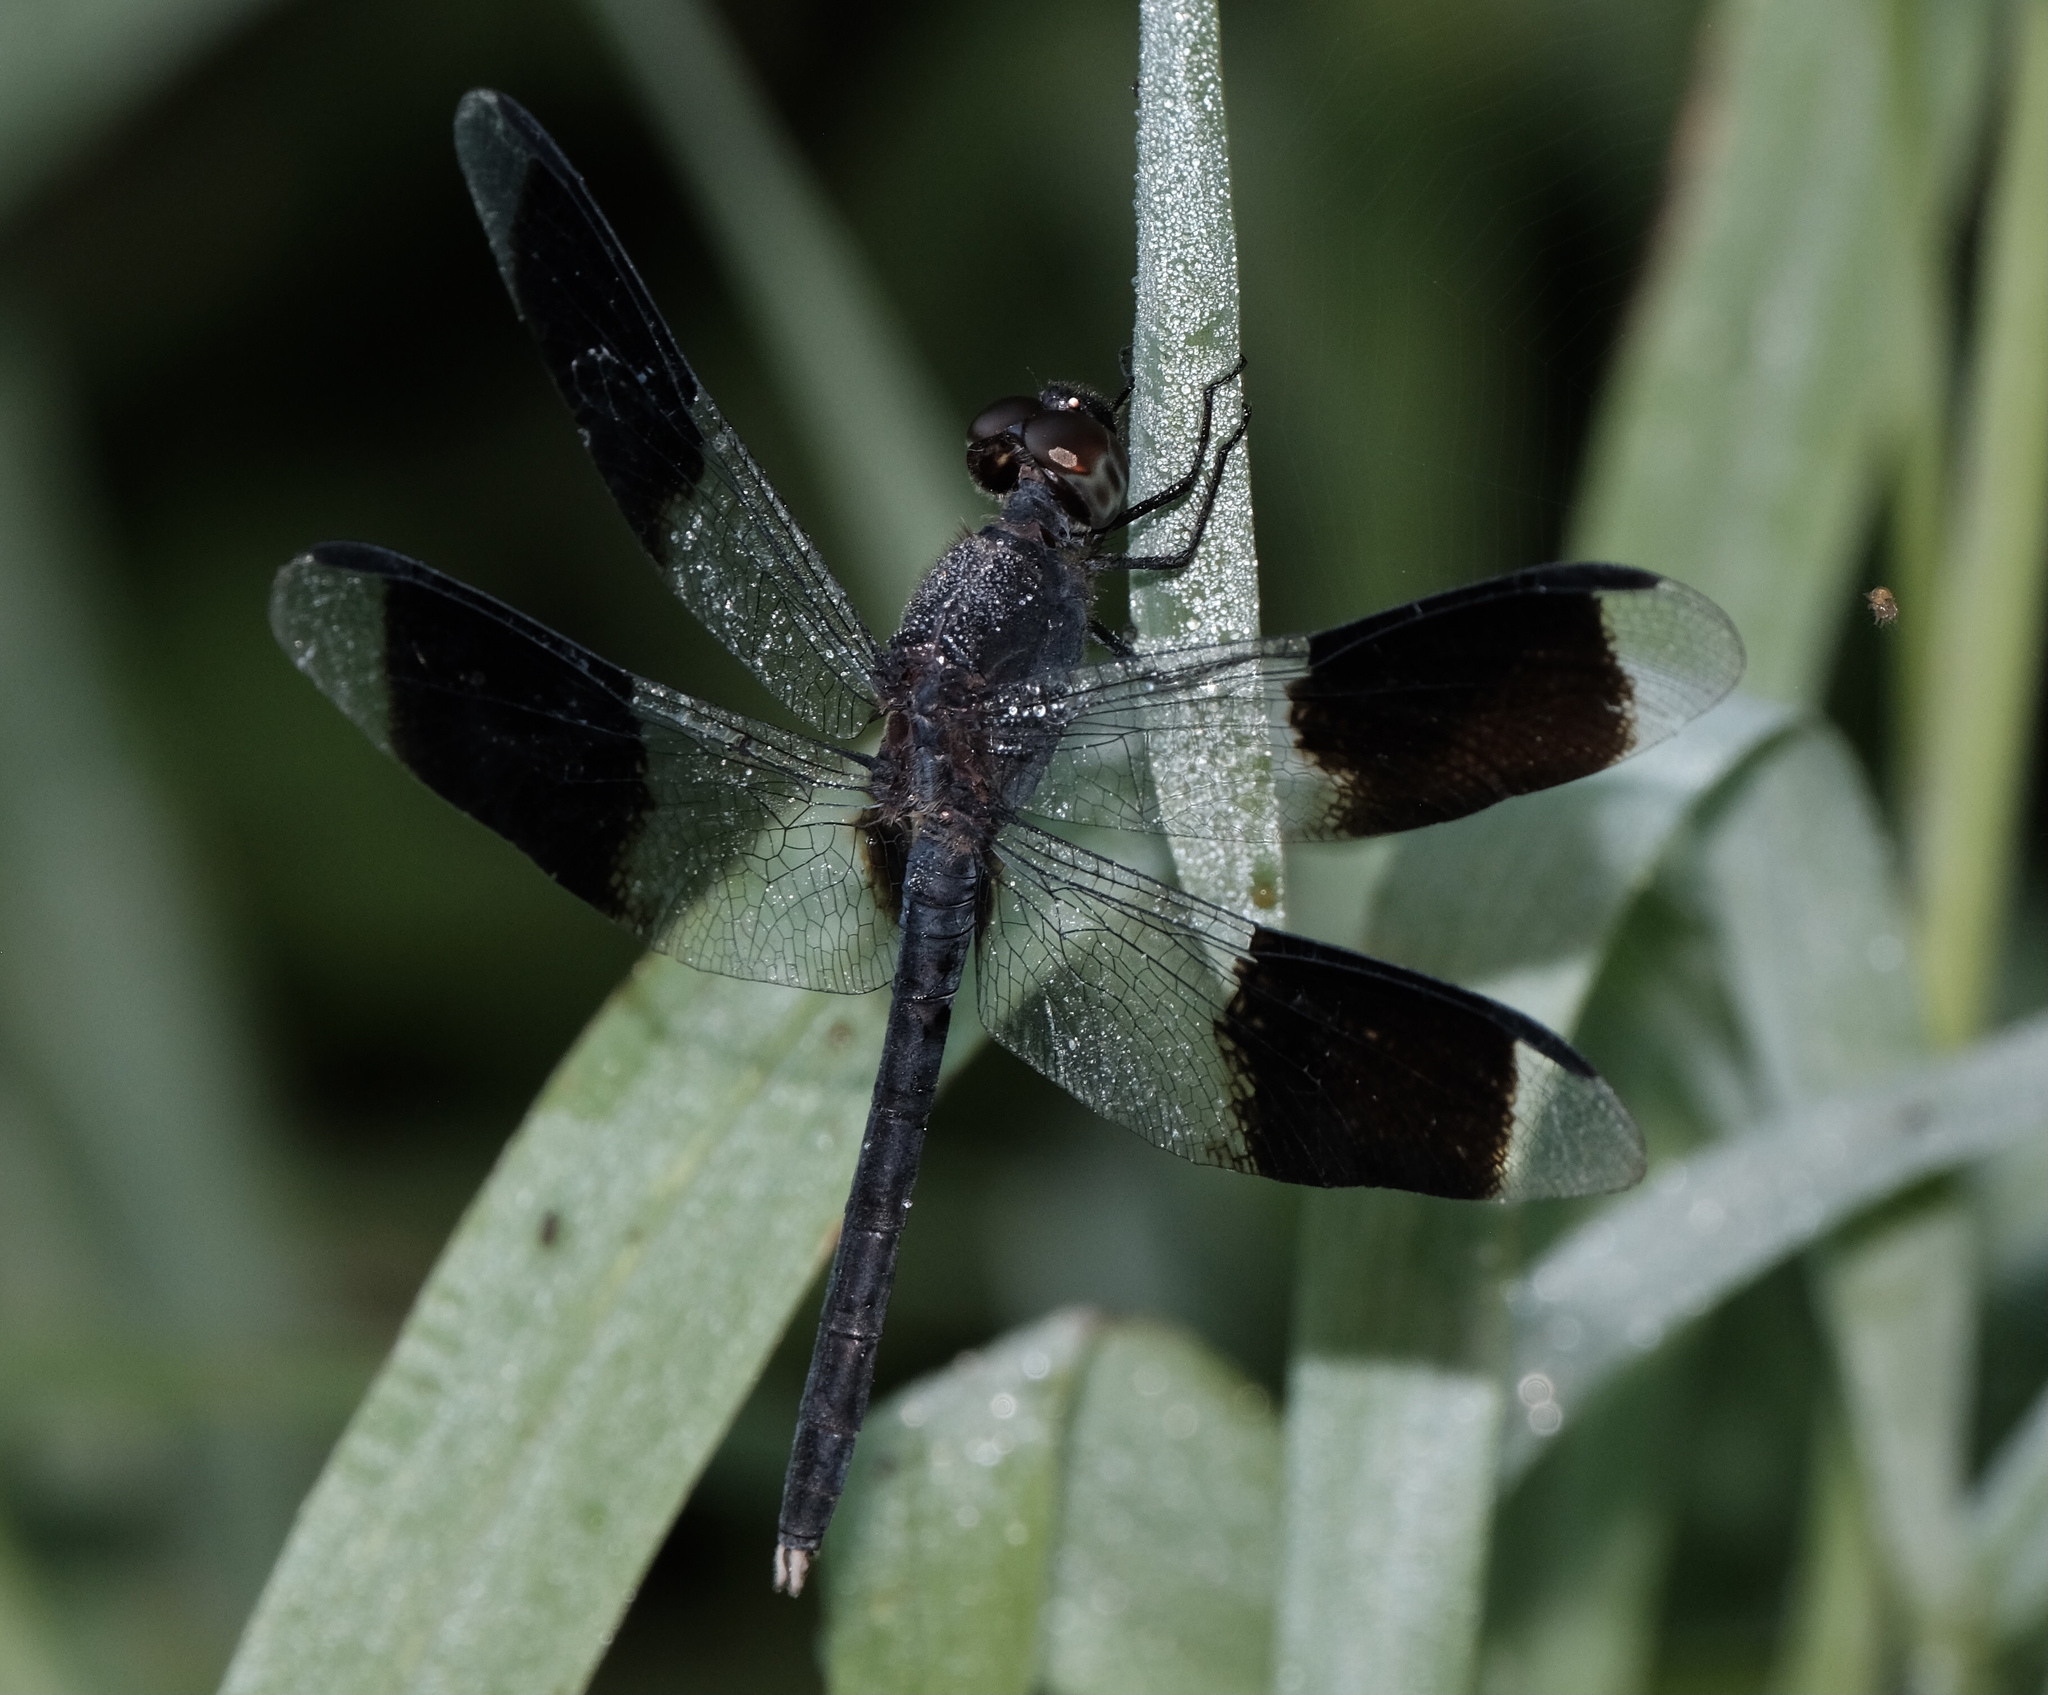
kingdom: Animalia
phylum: Arthropoda
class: Insecta
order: Odonata
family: Libellulidae
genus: Erythrodiplax
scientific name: Erythrodiplax umbrata
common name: Band-winged dragonlet
